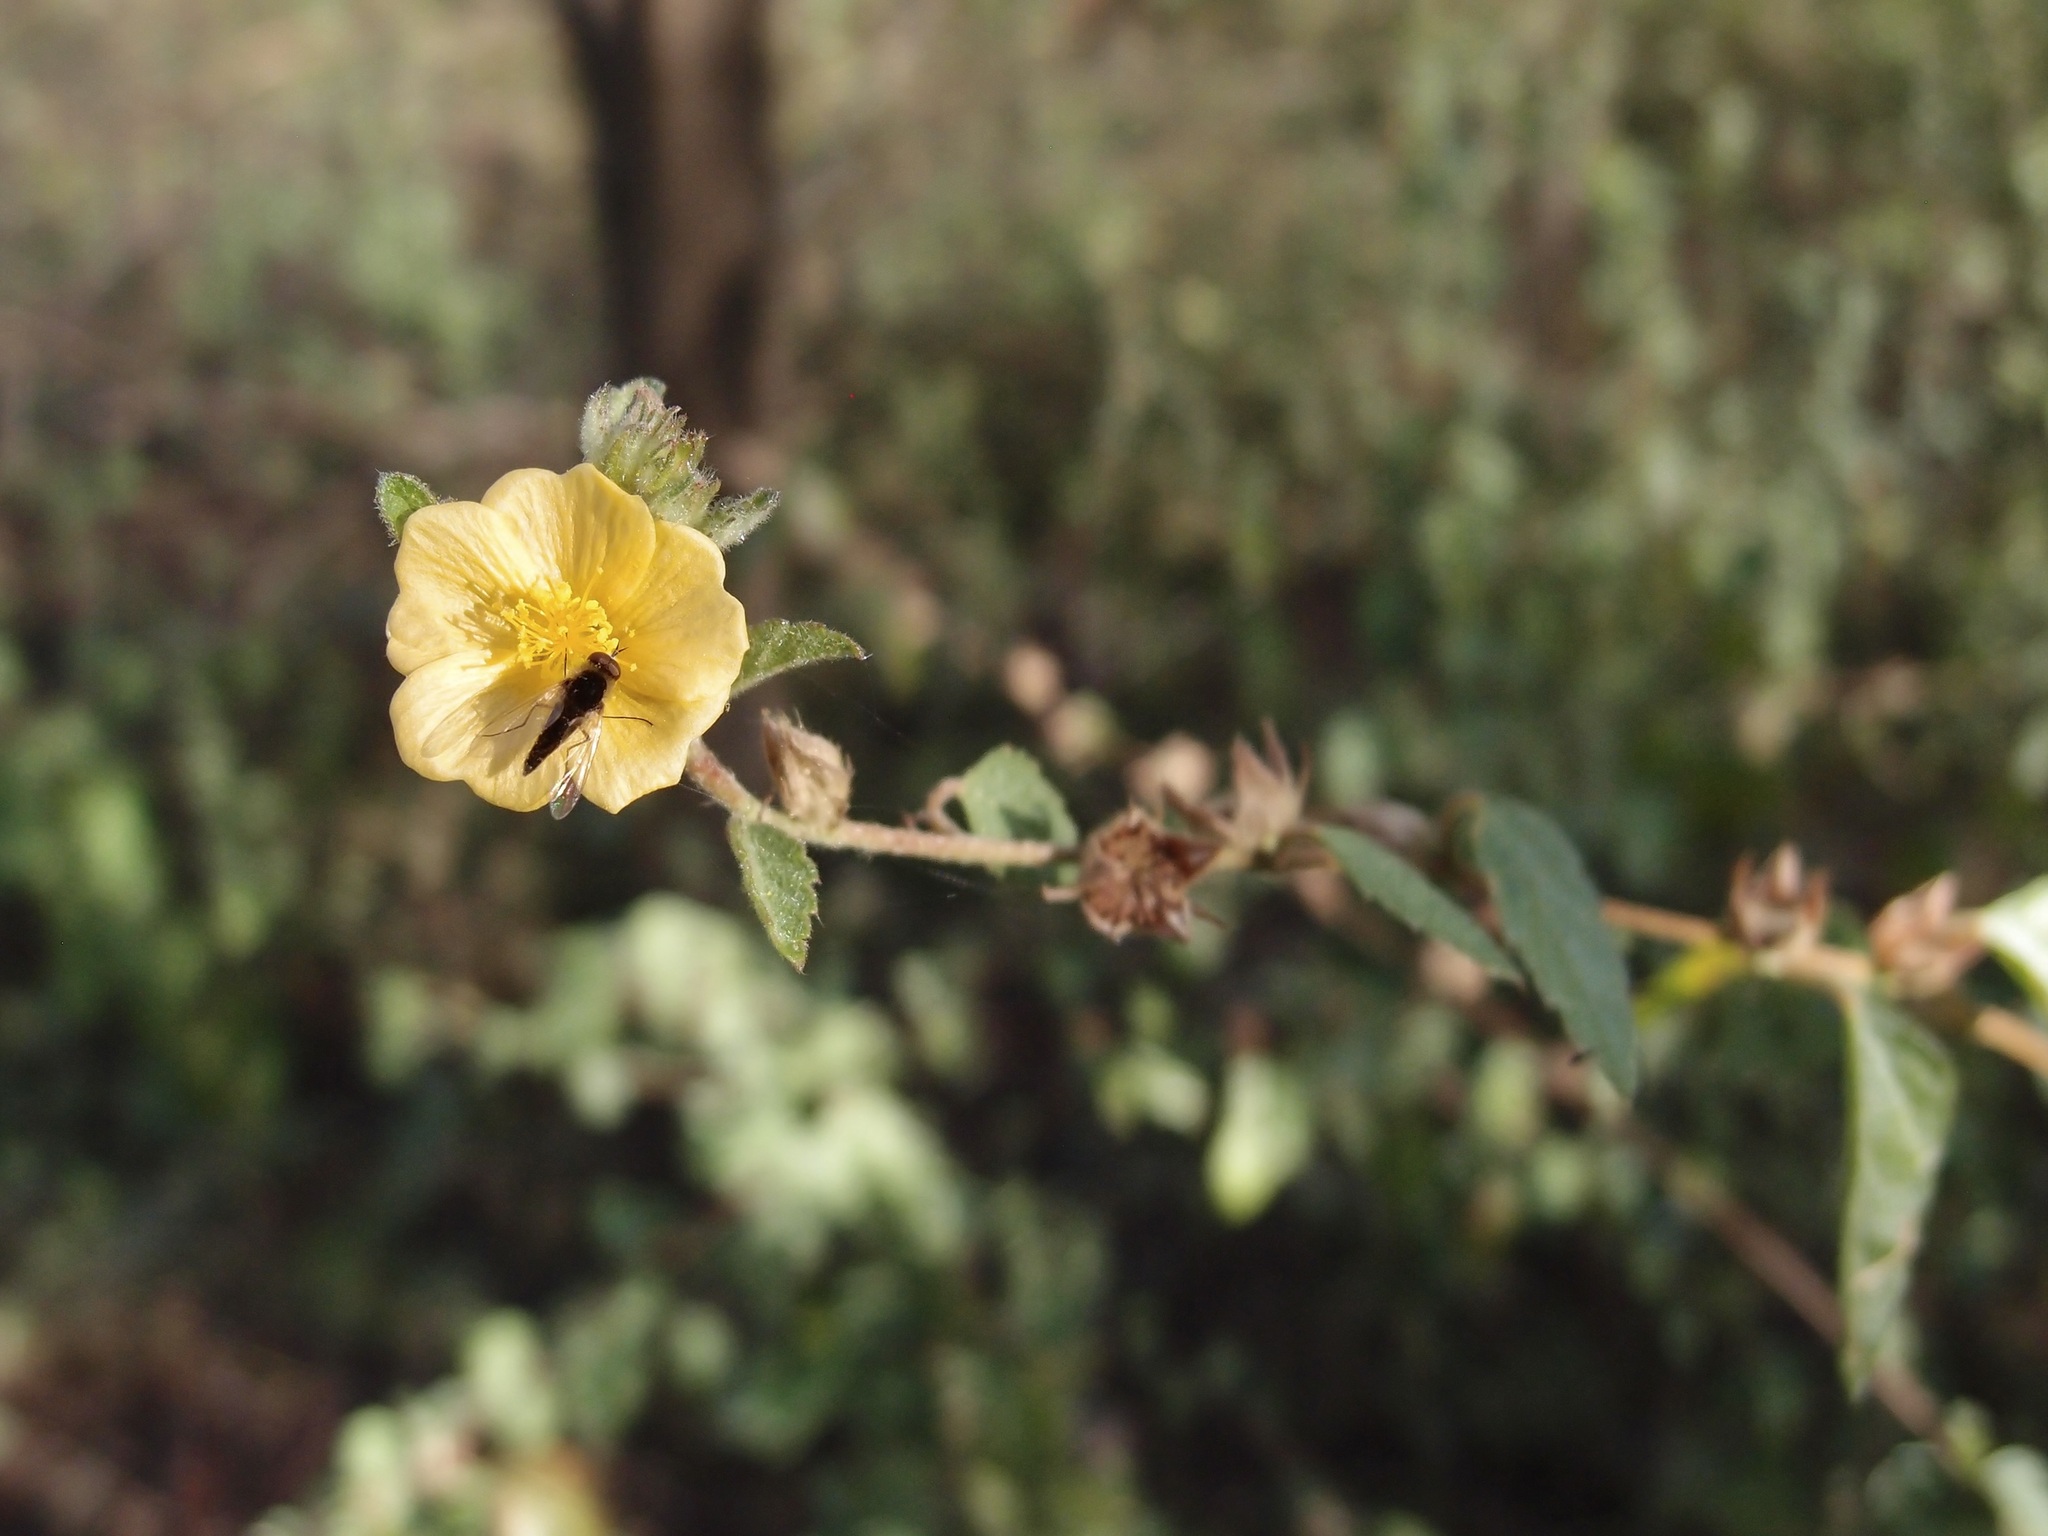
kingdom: Plantae
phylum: Tracheophyta
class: Magnoliopsida
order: Malvales
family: Malvaceae
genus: Malvastrum
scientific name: Malvastrum bicuspidatum
